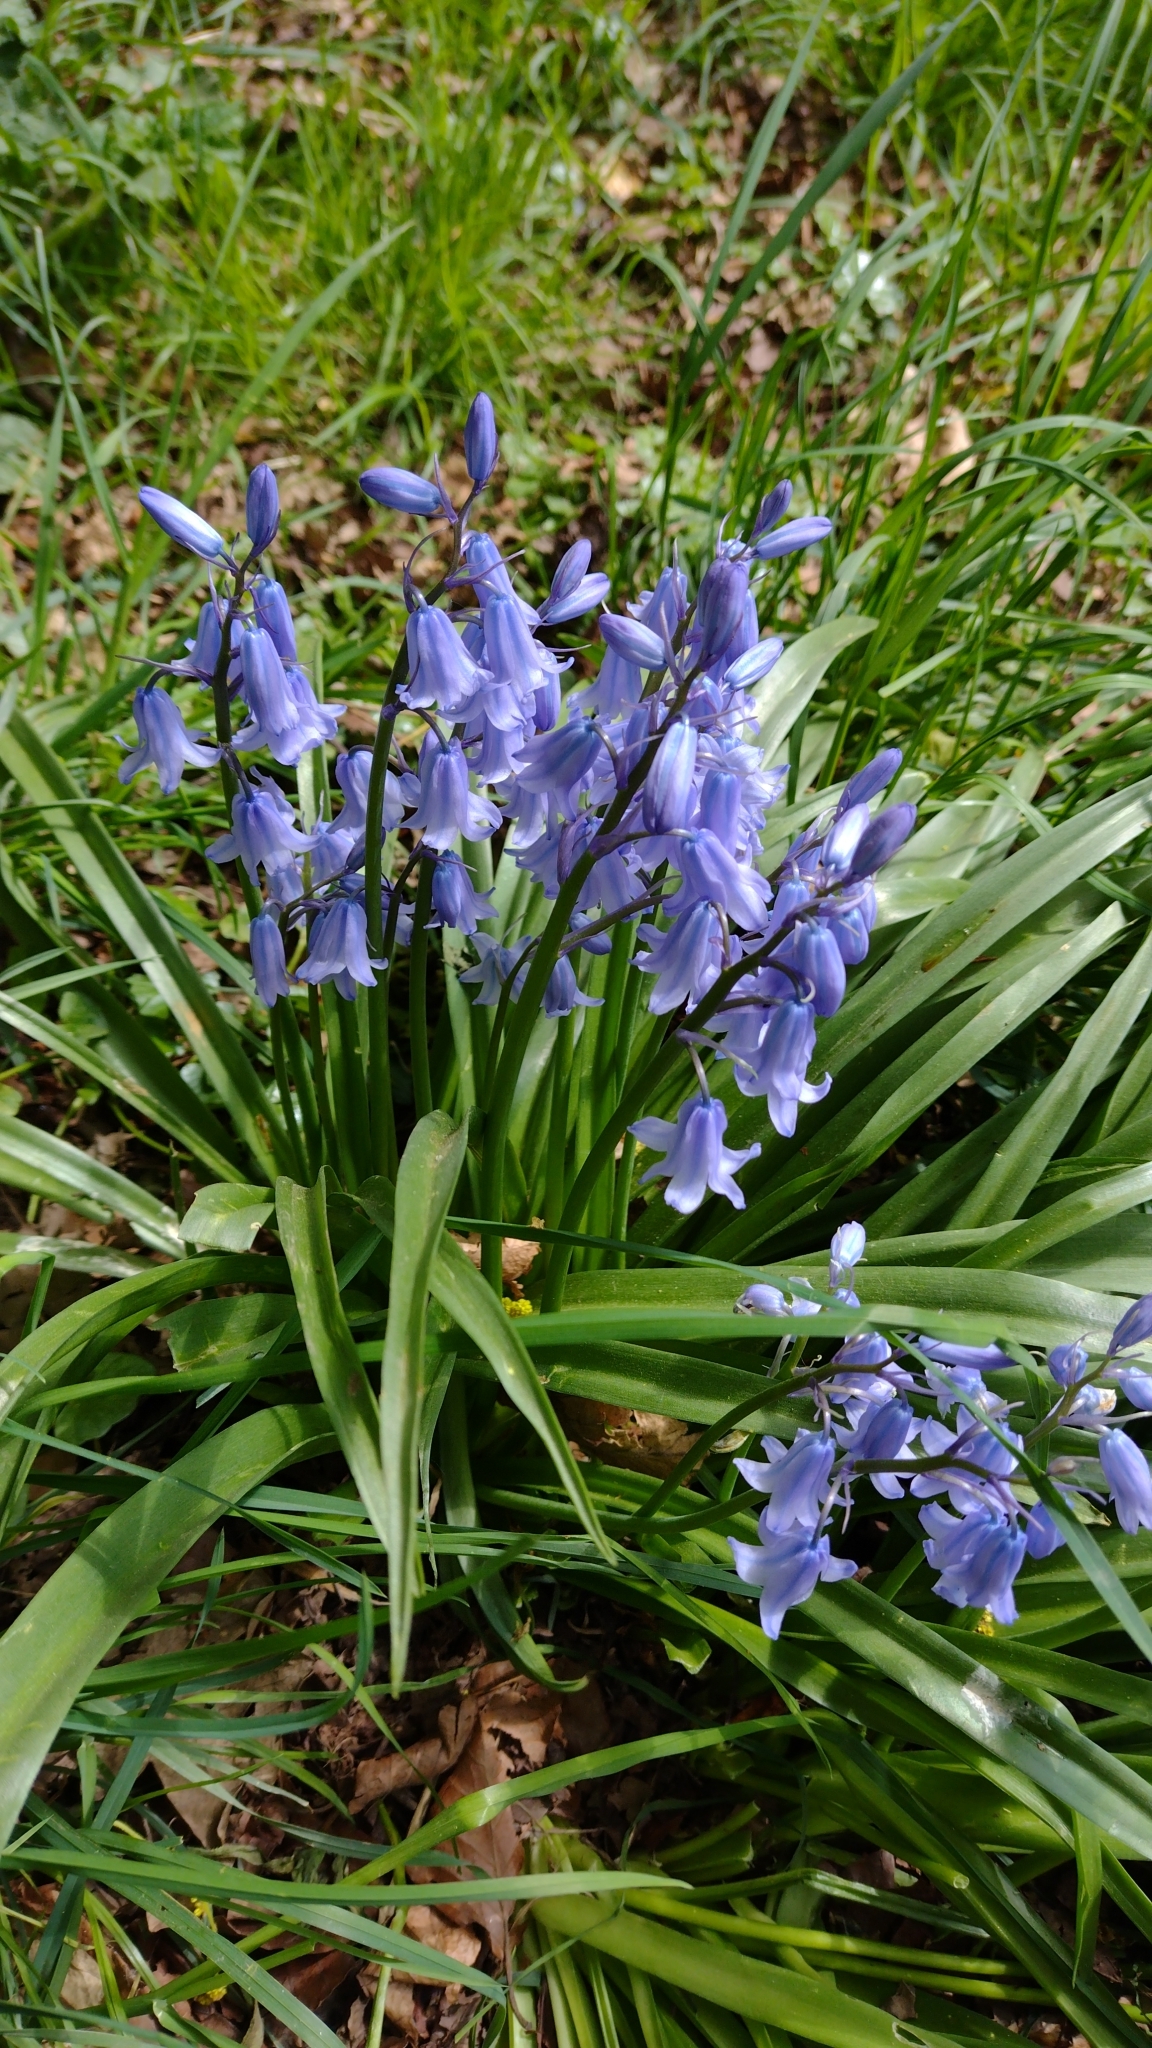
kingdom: Plantae
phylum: Tracheophyta
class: Liliopsida
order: Asparagales
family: Asparagaceae
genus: Hyacinthoides
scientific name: Hyacinthoides massartiana
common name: Hyacinthoides
